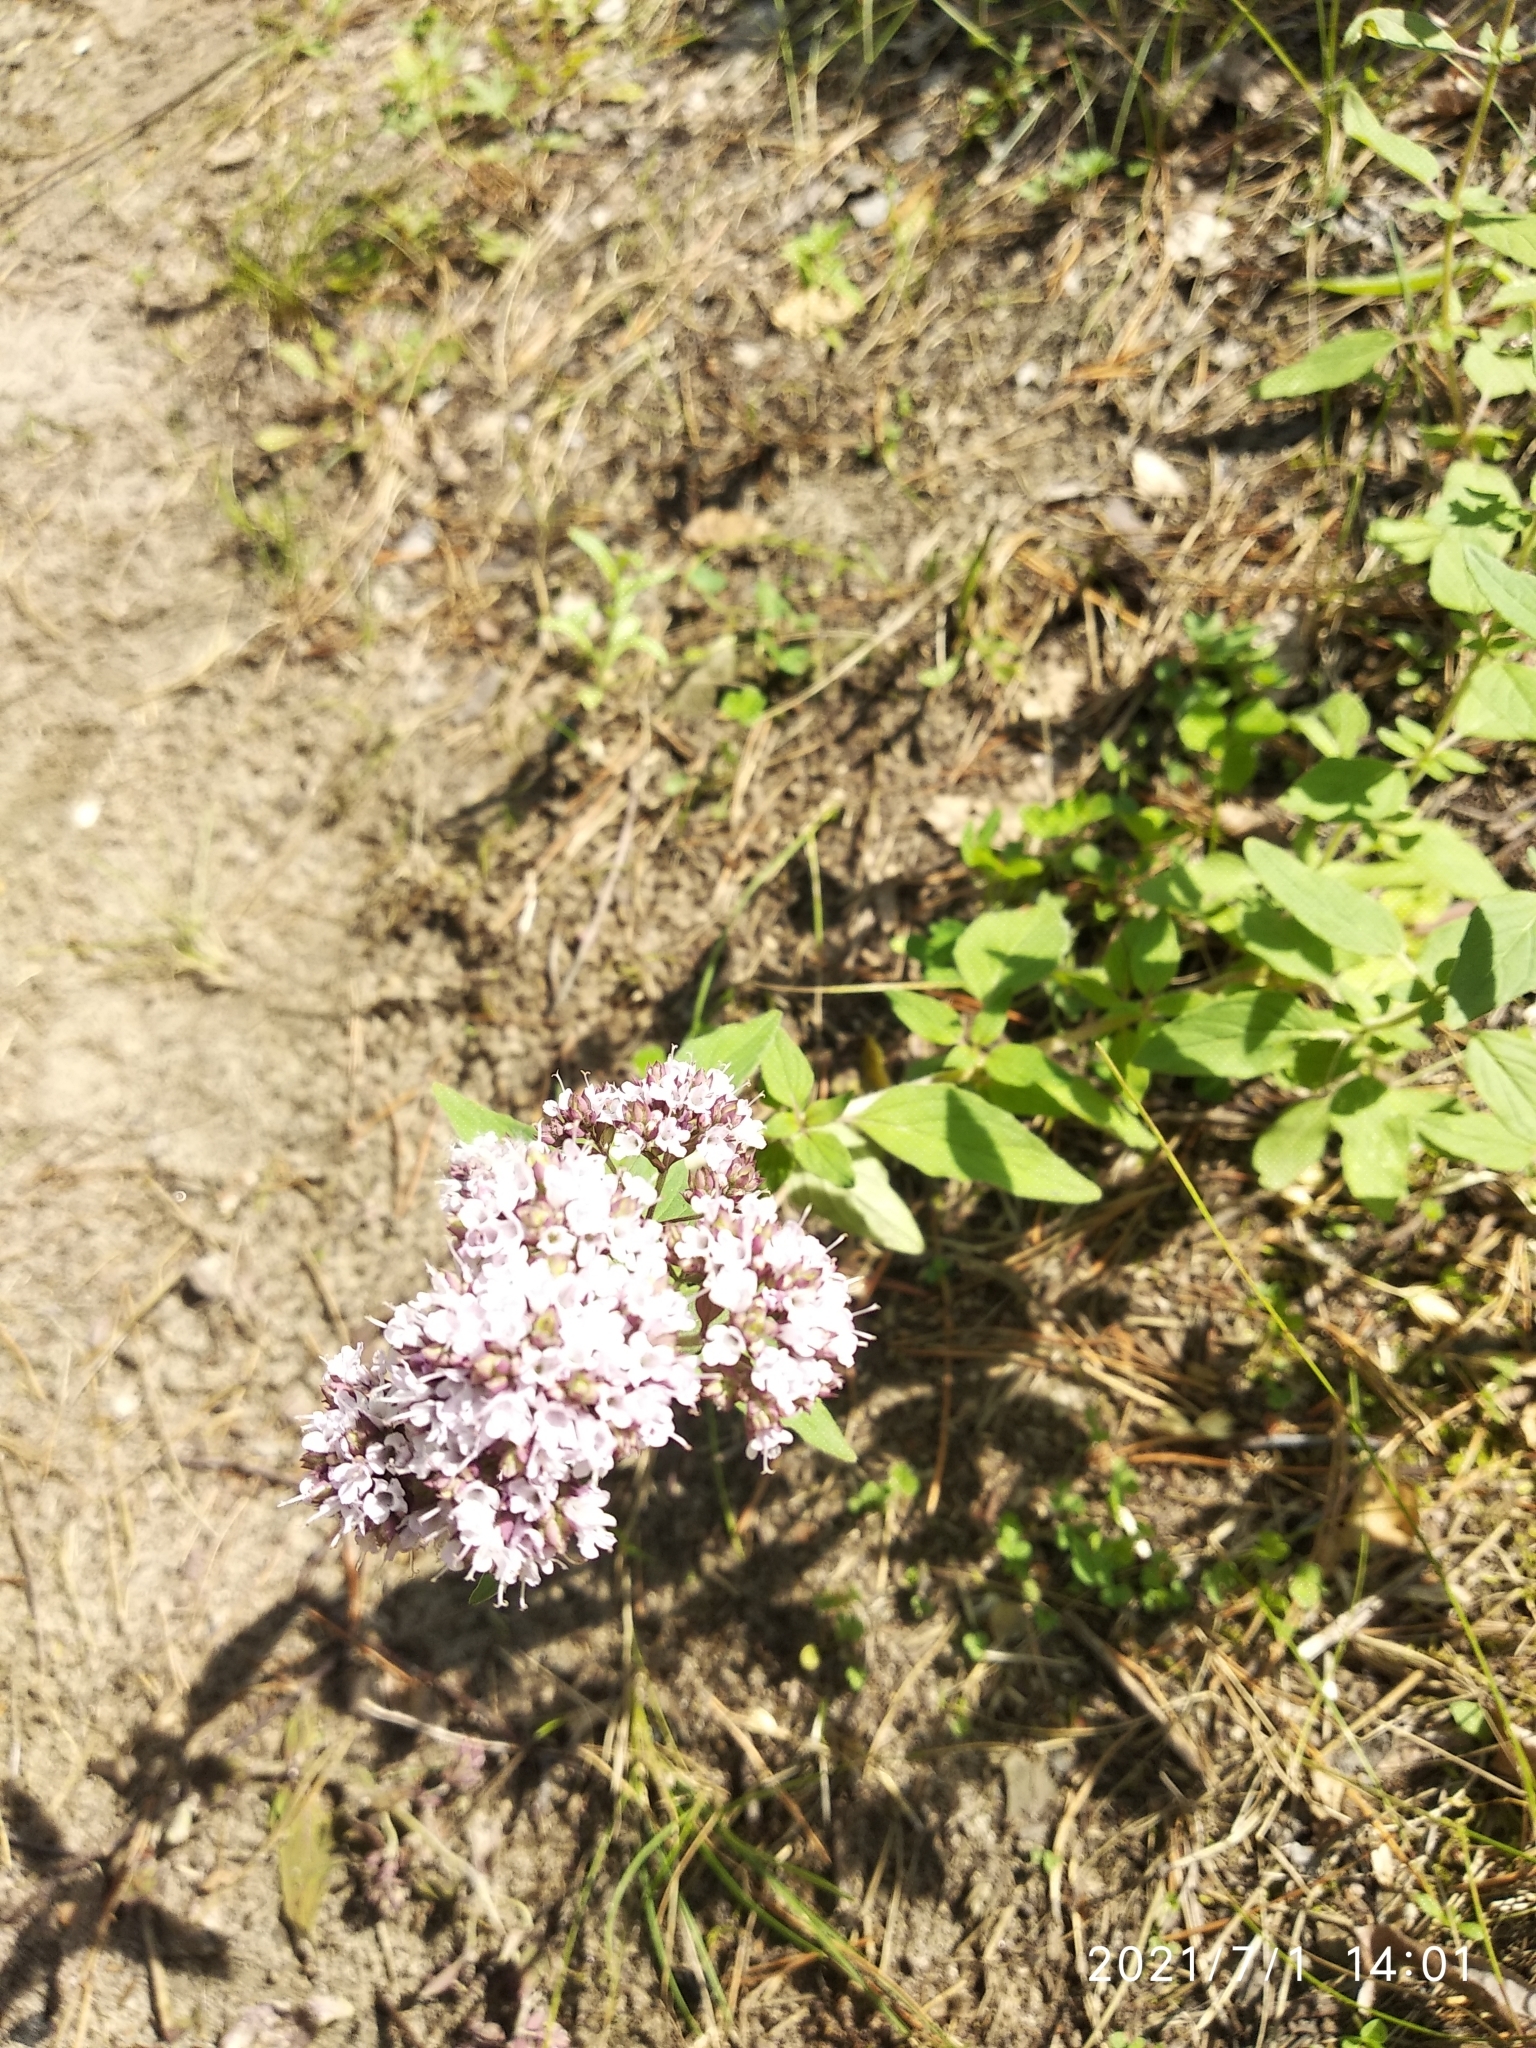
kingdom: Plantae
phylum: Tracheophyta
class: Magnoliopsida
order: Lamiales
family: Lamiaceae
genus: Origanum
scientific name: Origanum vulgare
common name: Wild marjoram
